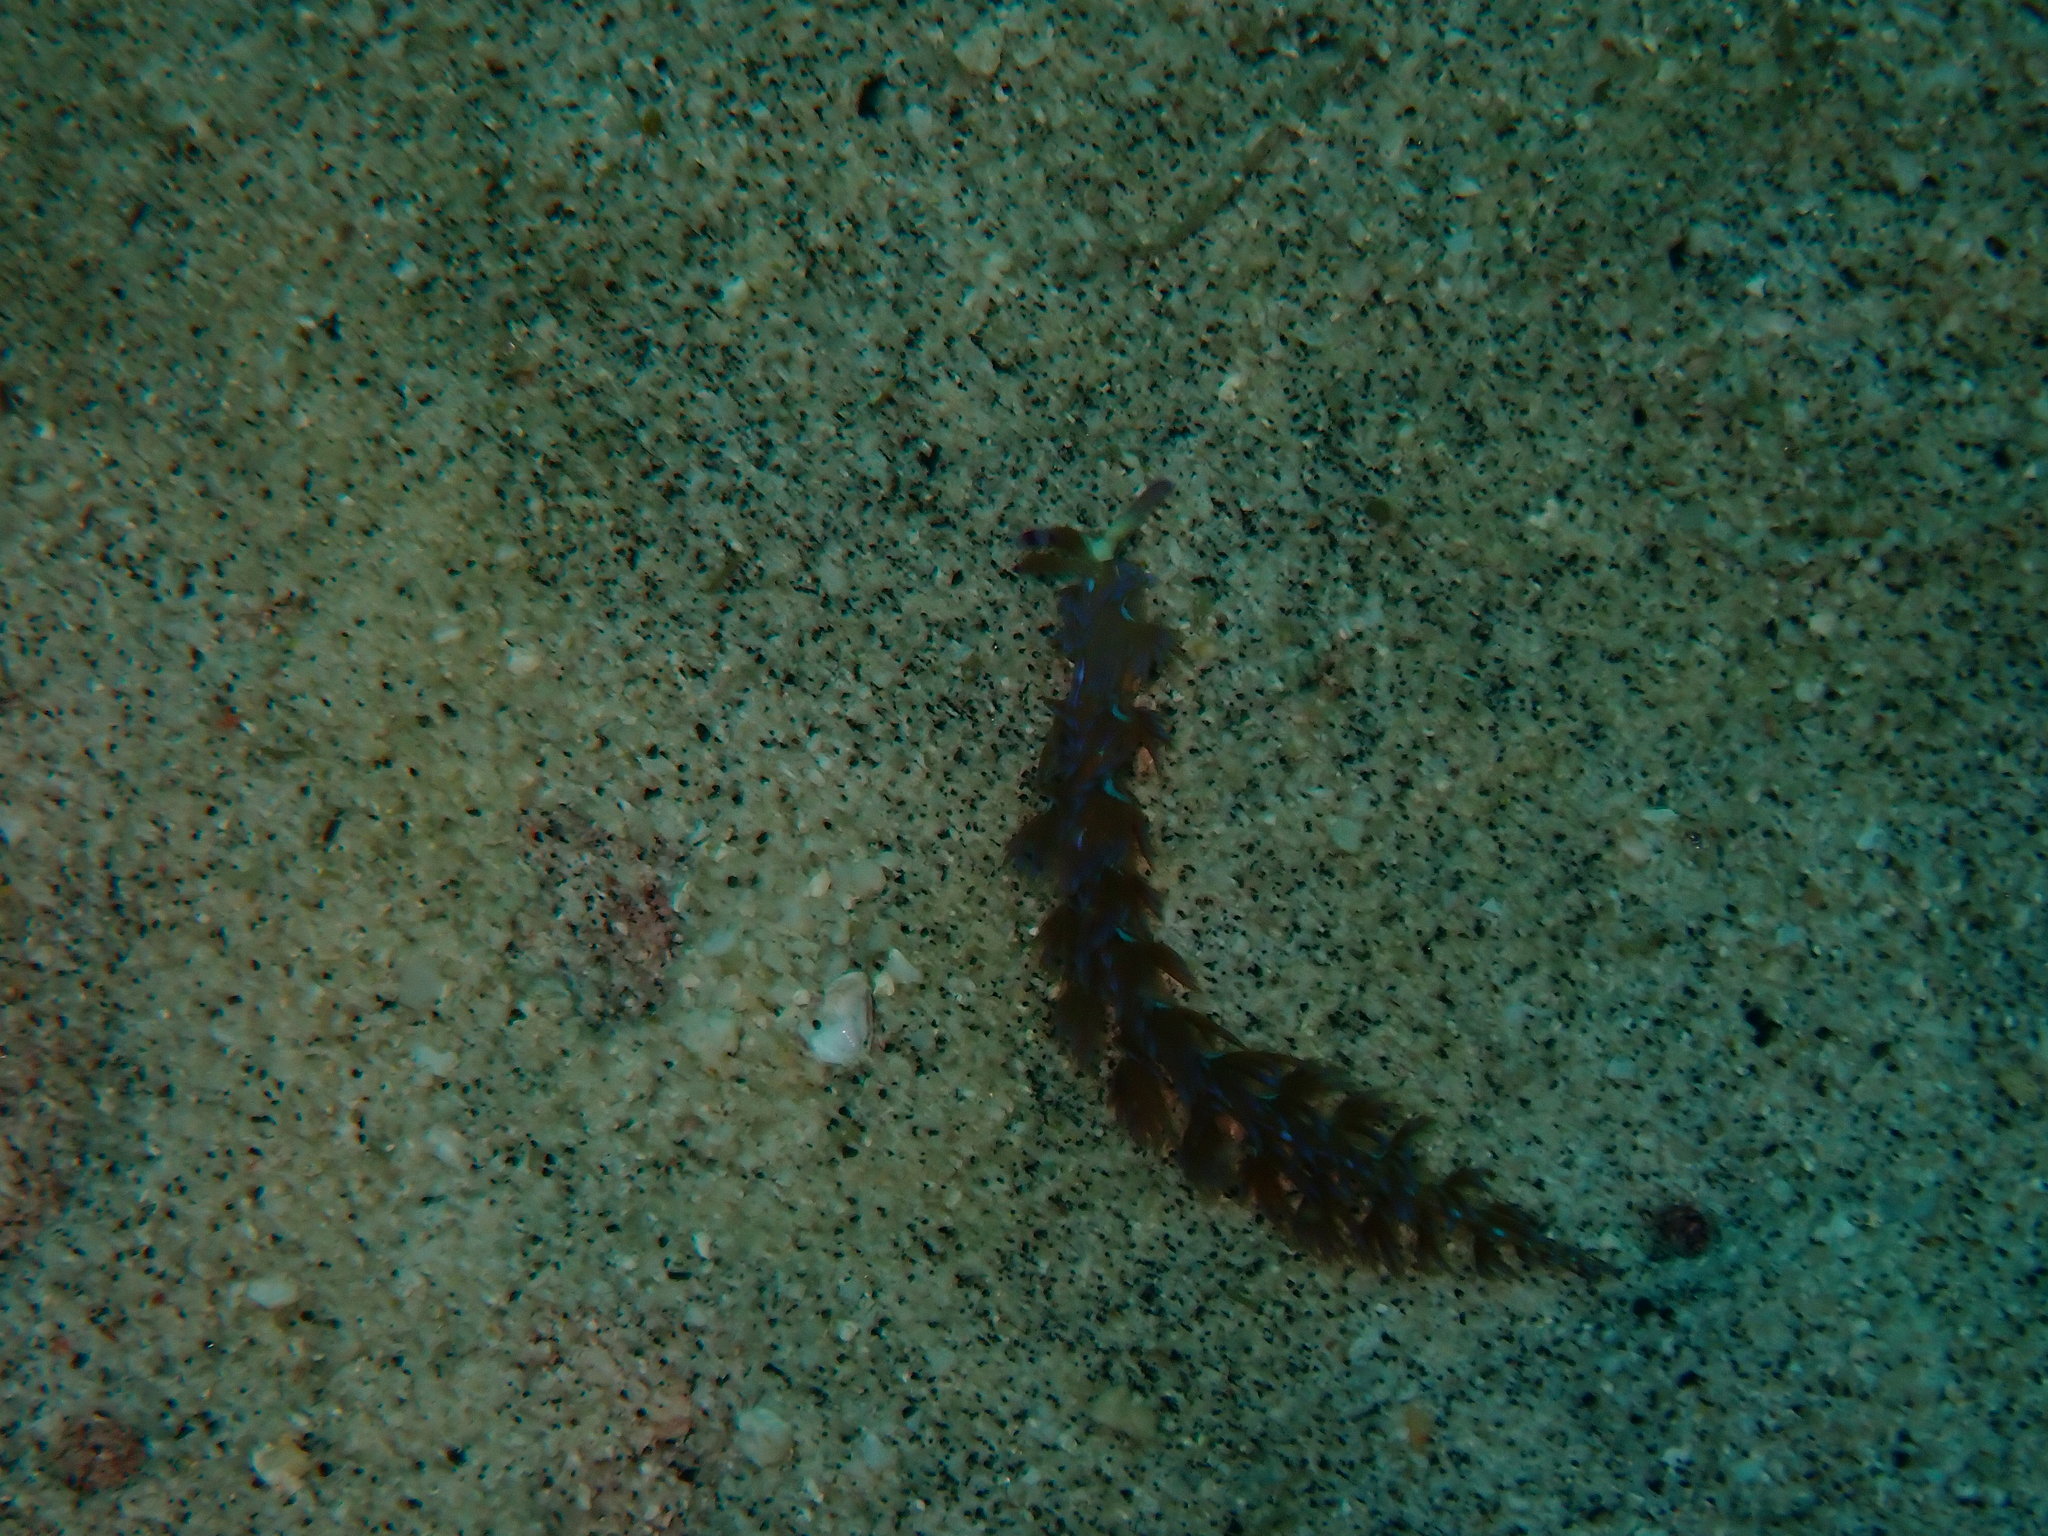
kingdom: Animalia
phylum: Mollusca
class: Gastropoda
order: Nudibranchia
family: Facelinidae
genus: Pteraeolidia
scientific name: Pteraeolidia semperi
